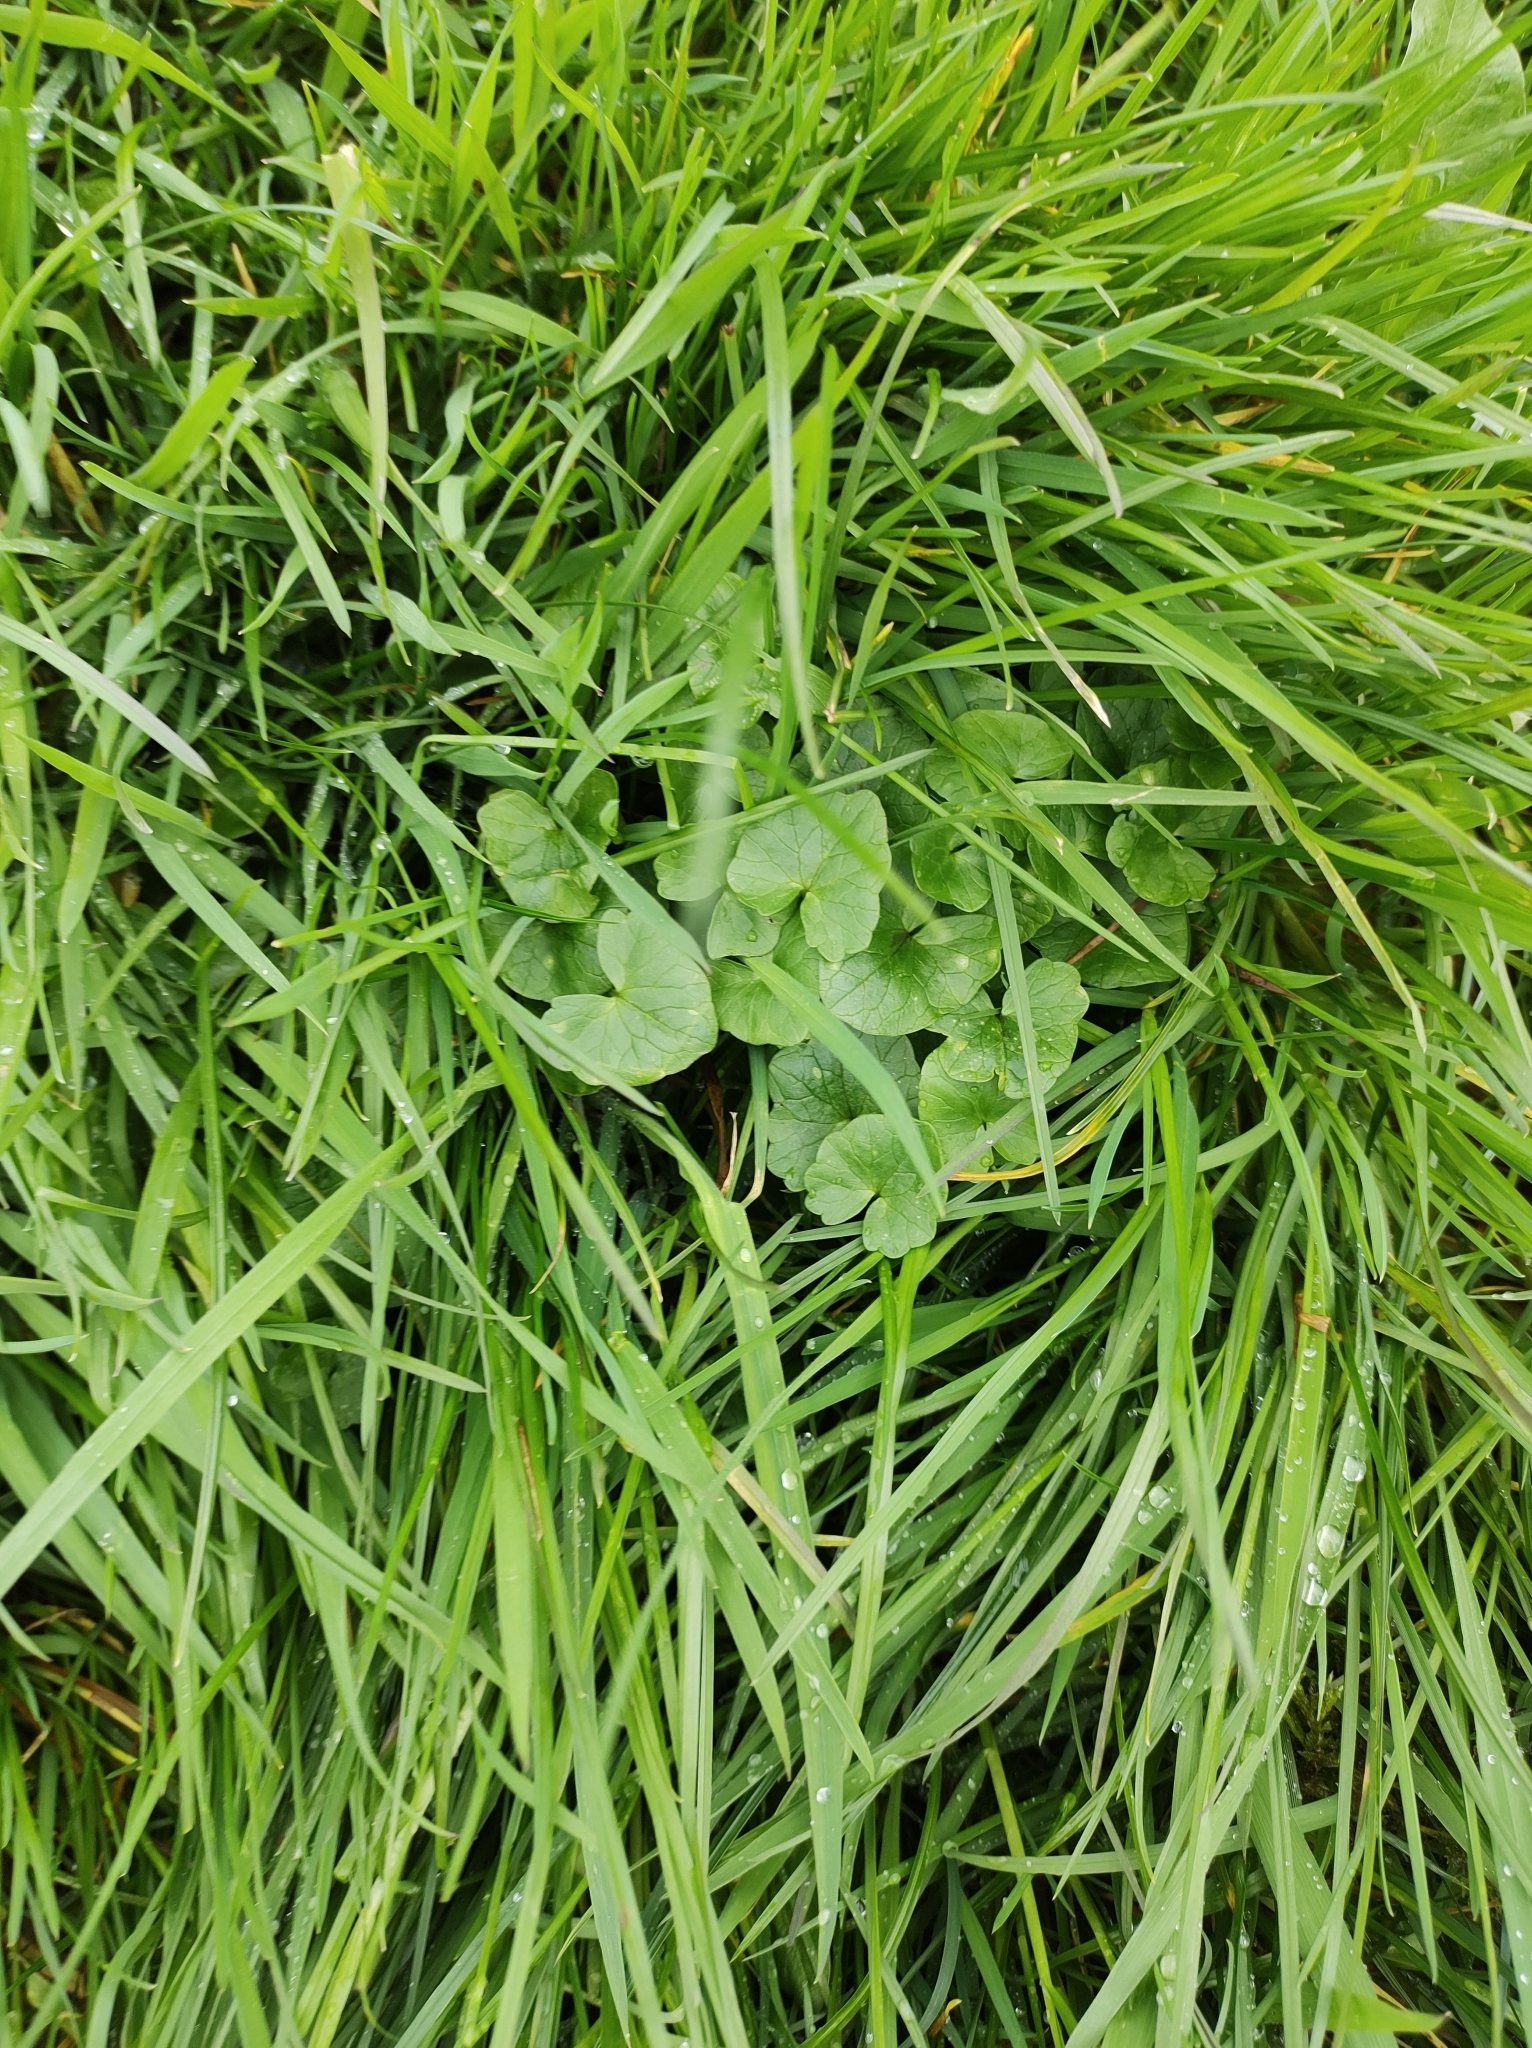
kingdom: Plantae
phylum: Tracheophyta
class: Magnoliopsida
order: Ranunculales
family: Ranunculaceae
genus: Ficaria
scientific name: Ficaria verna
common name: Lesser celandine
